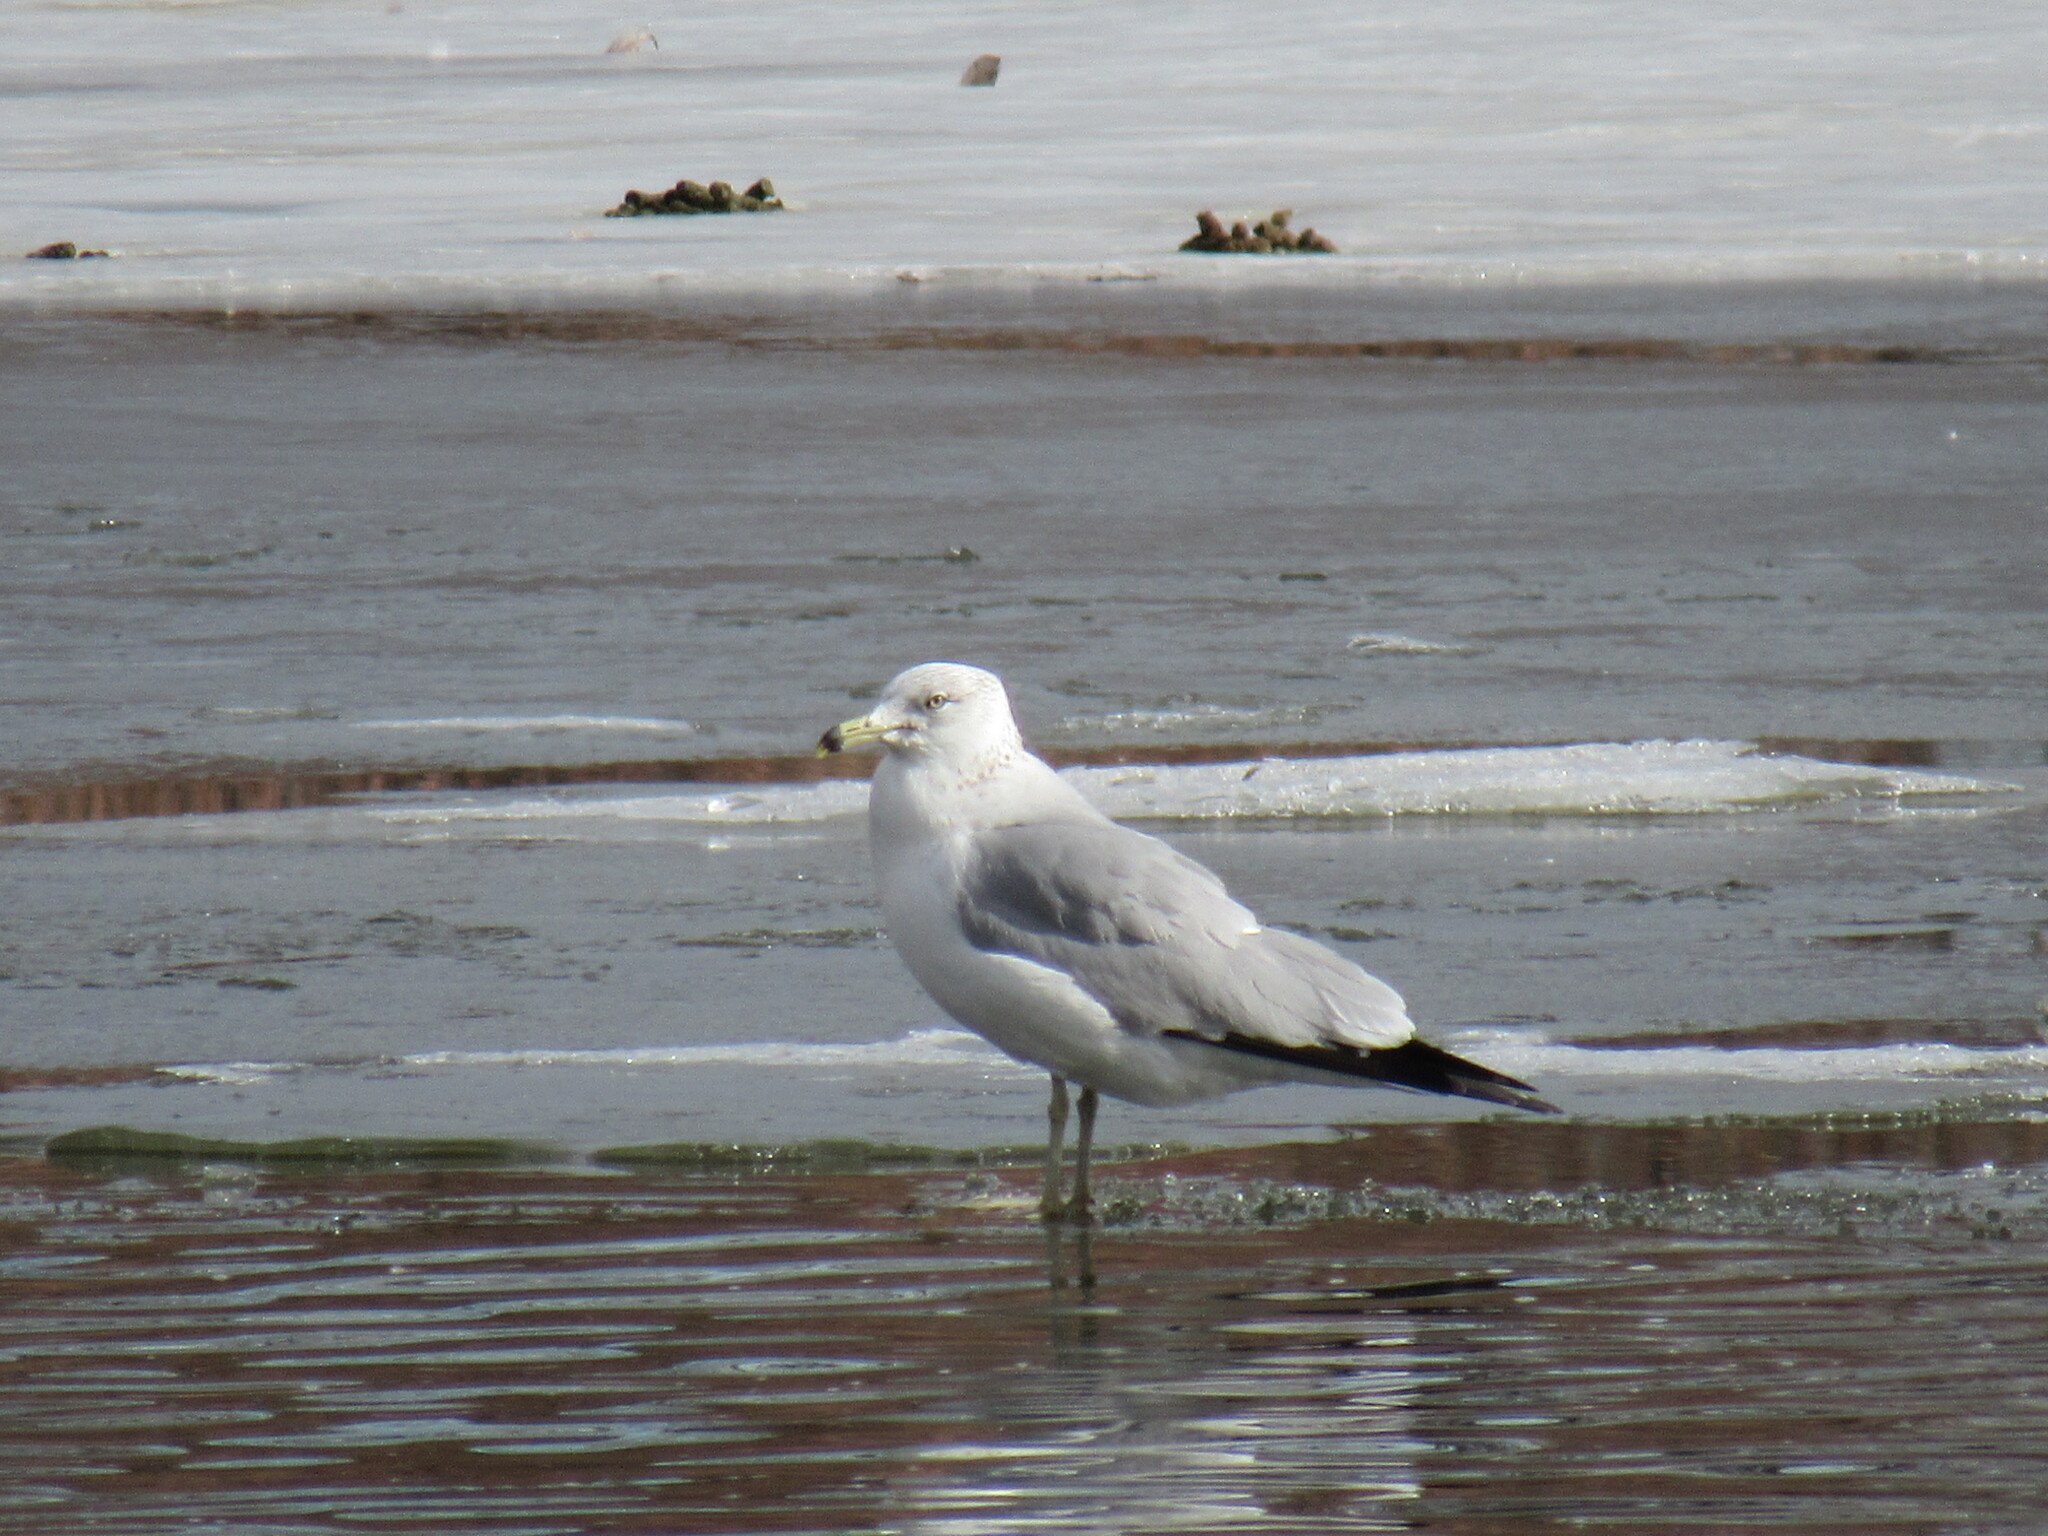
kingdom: Animalia
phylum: Chordata
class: Aves
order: Charadriiformes
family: Laridae
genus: Larus
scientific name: Larus delawarensis
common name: Ring-billed gull
